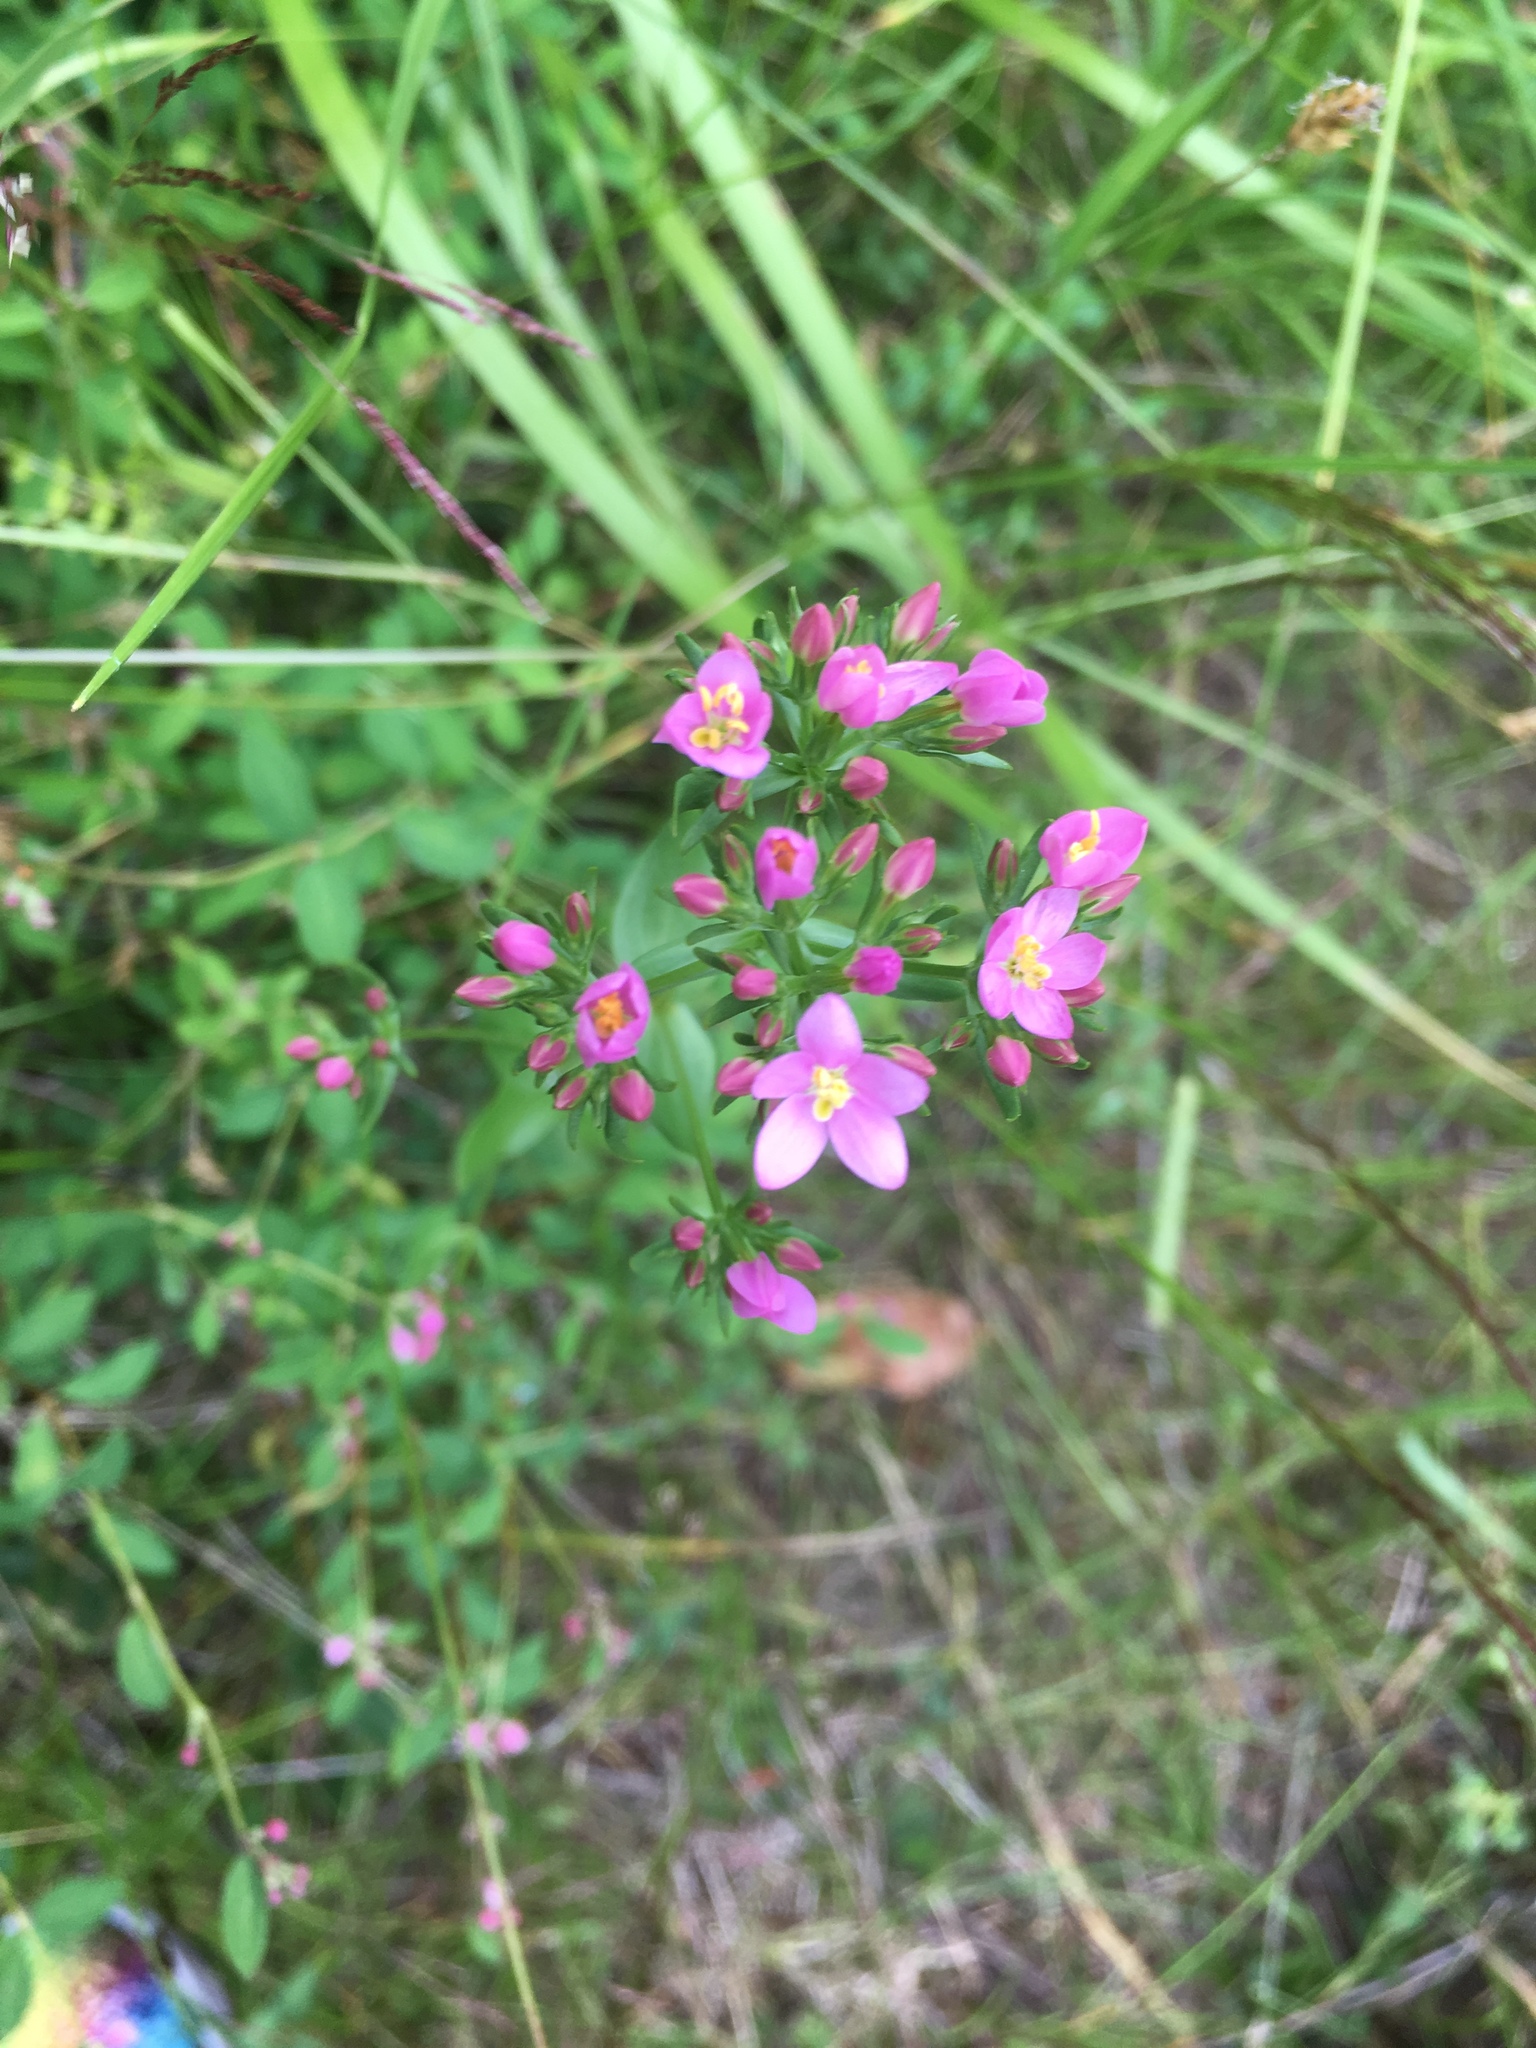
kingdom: Plantae
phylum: Tracheophyta
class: Magnoliopsida
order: Gentianales
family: Gentianaceae
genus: Centaurium
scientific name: Centaurium erythraea
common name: Common centaury
